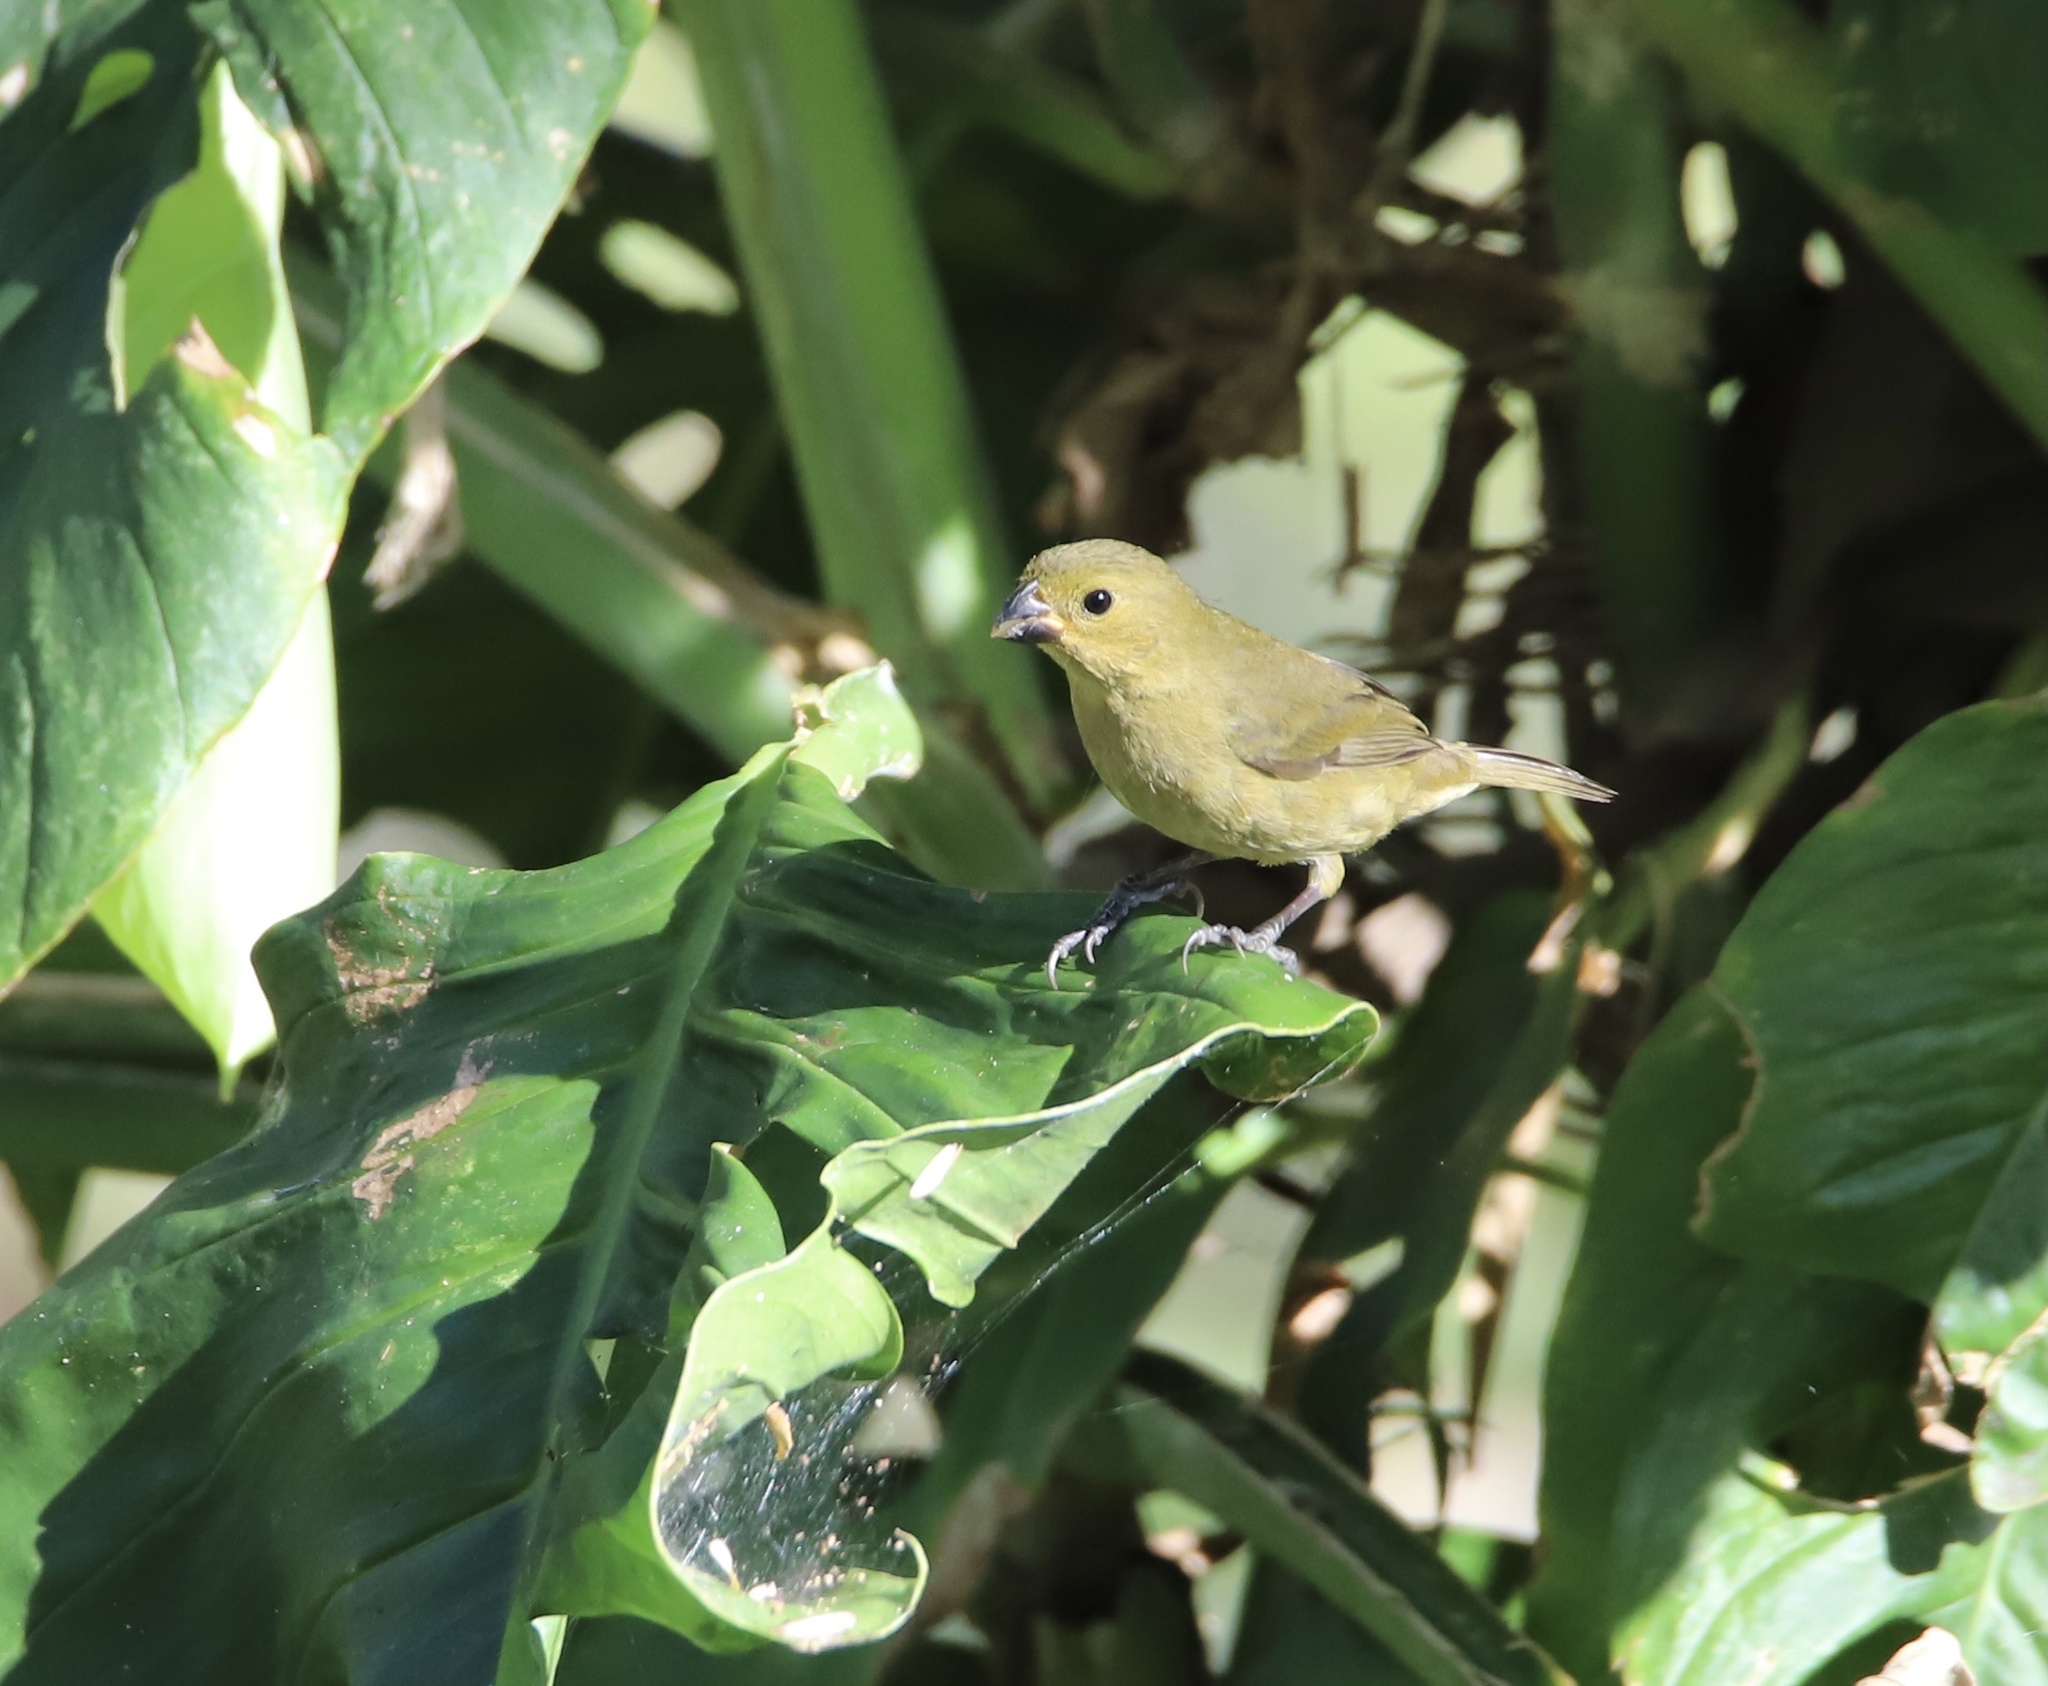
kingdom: Animalia
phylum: Chordata
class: Aves
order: Passeriformes
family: Thraupidae
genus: Sporophila
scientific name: Sporophila corvina
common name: Variable seedeater
